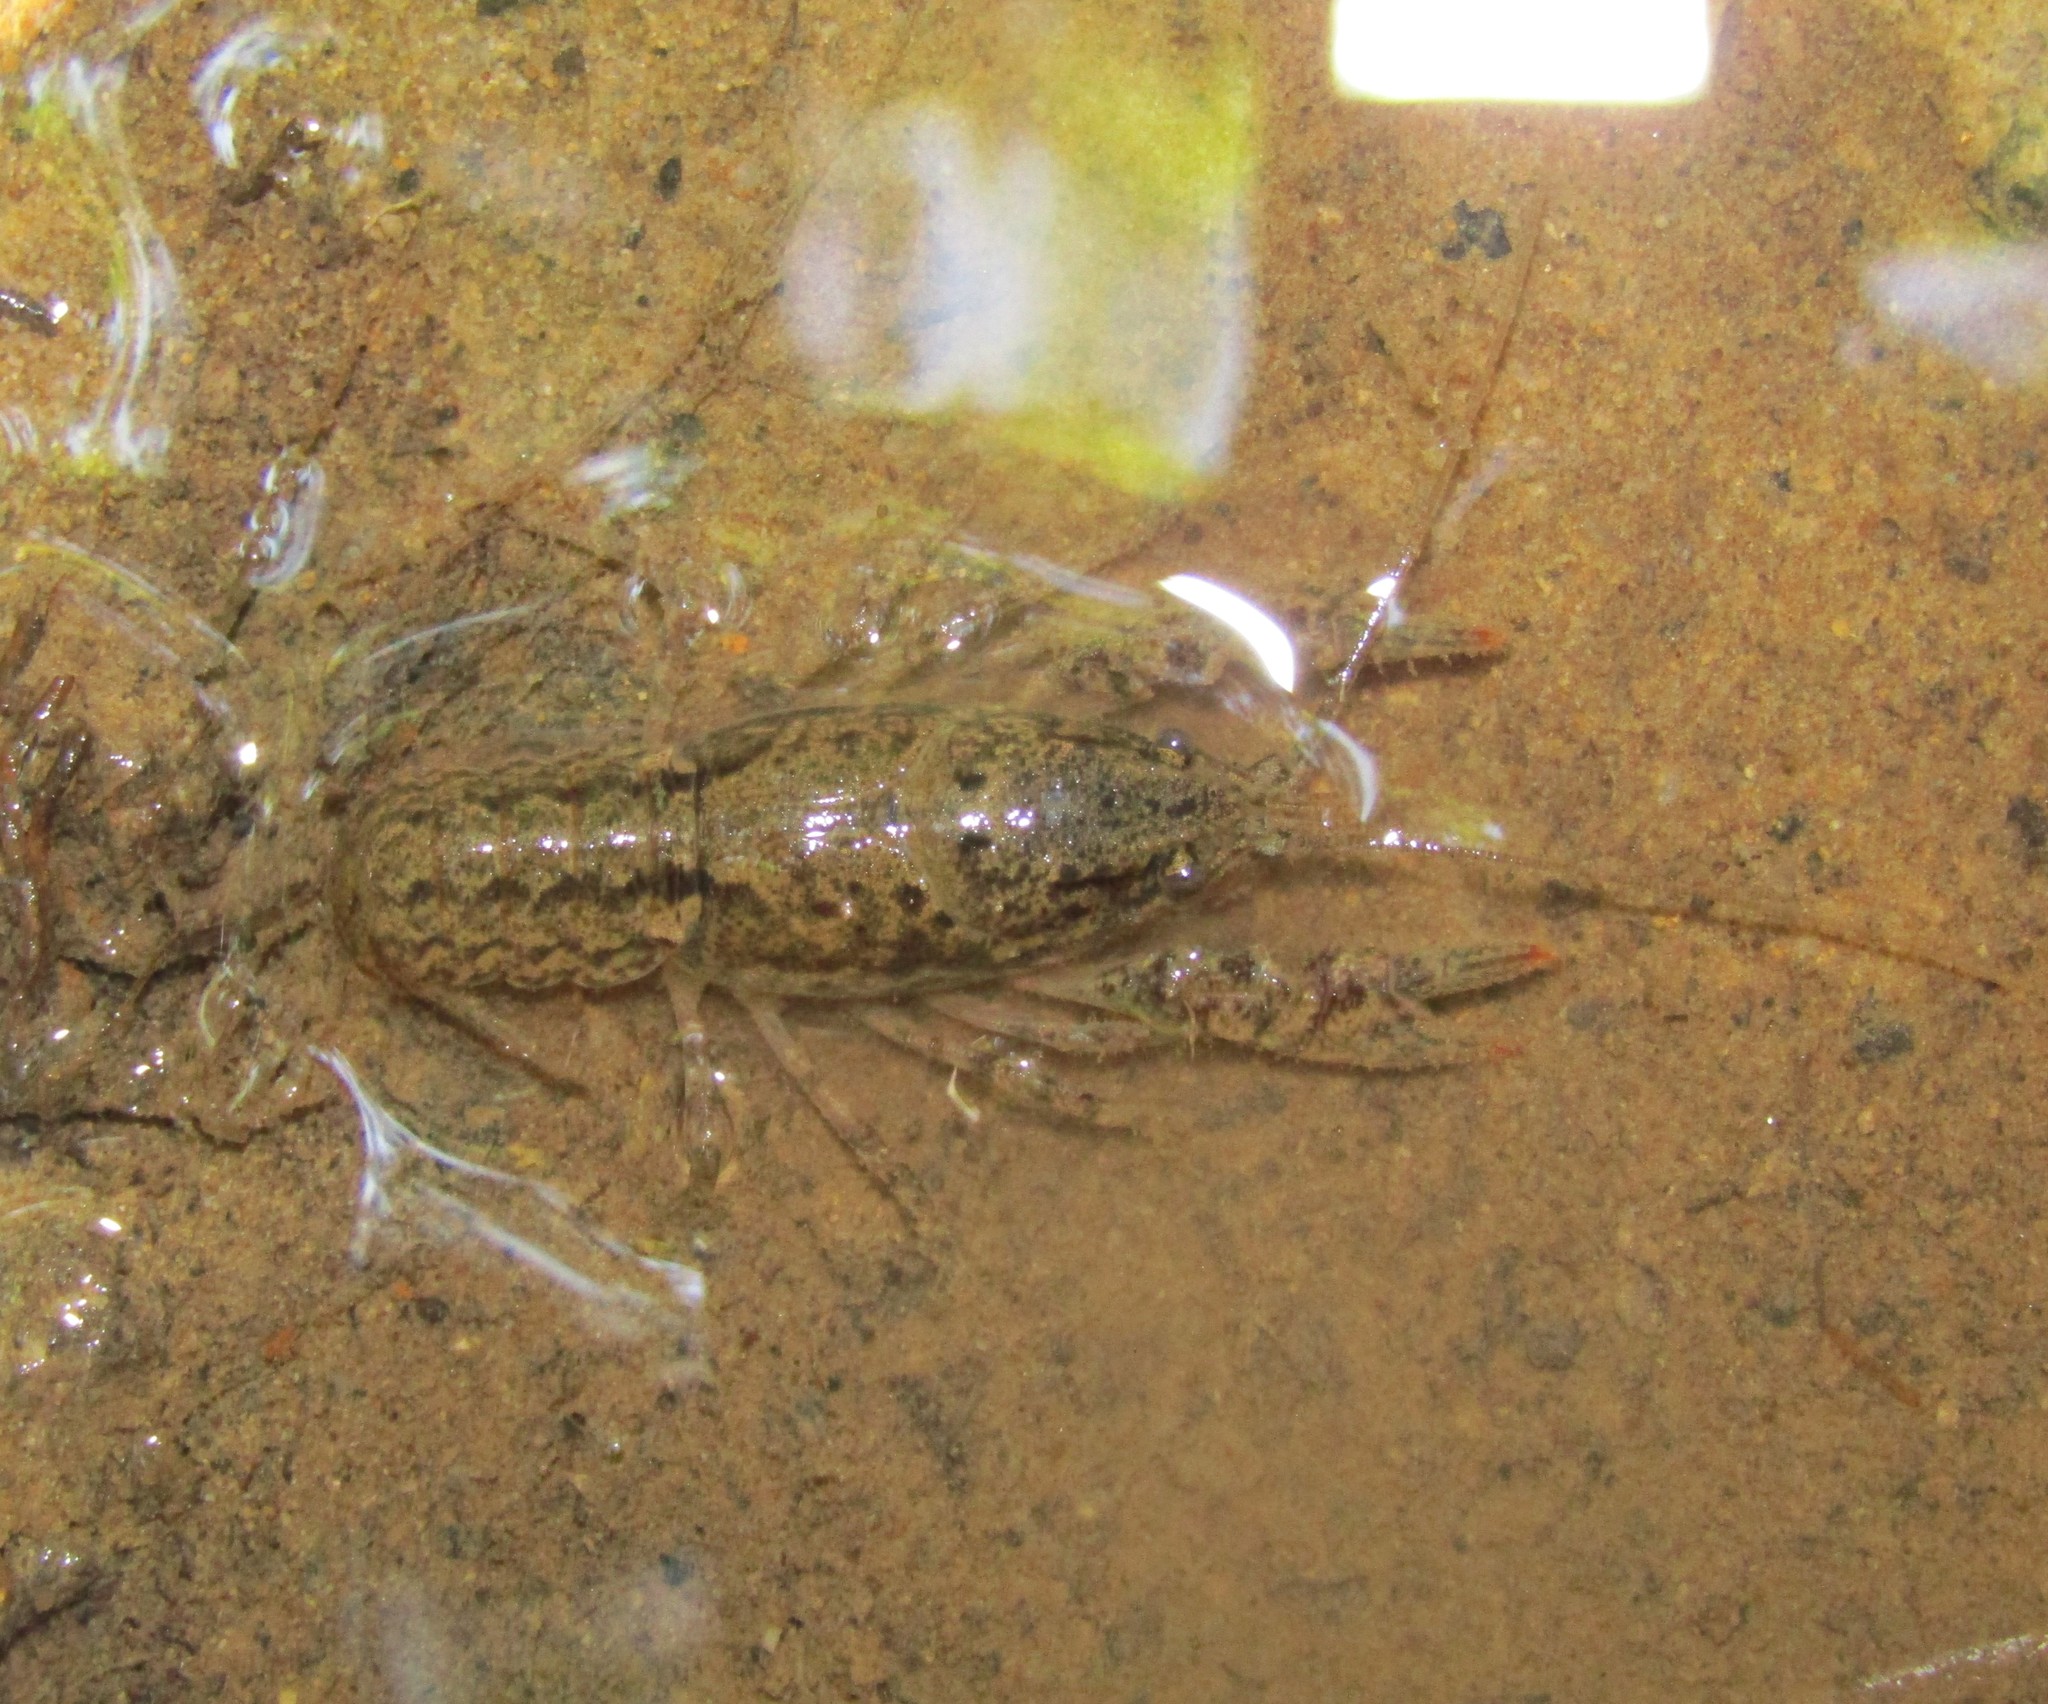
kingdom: Animalia
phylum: Arthropoda
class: Malacostraca
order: Decapoda
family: Cambaridae
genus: Cambarus
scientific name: Cambarus latimanus
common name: Variable crayfish
